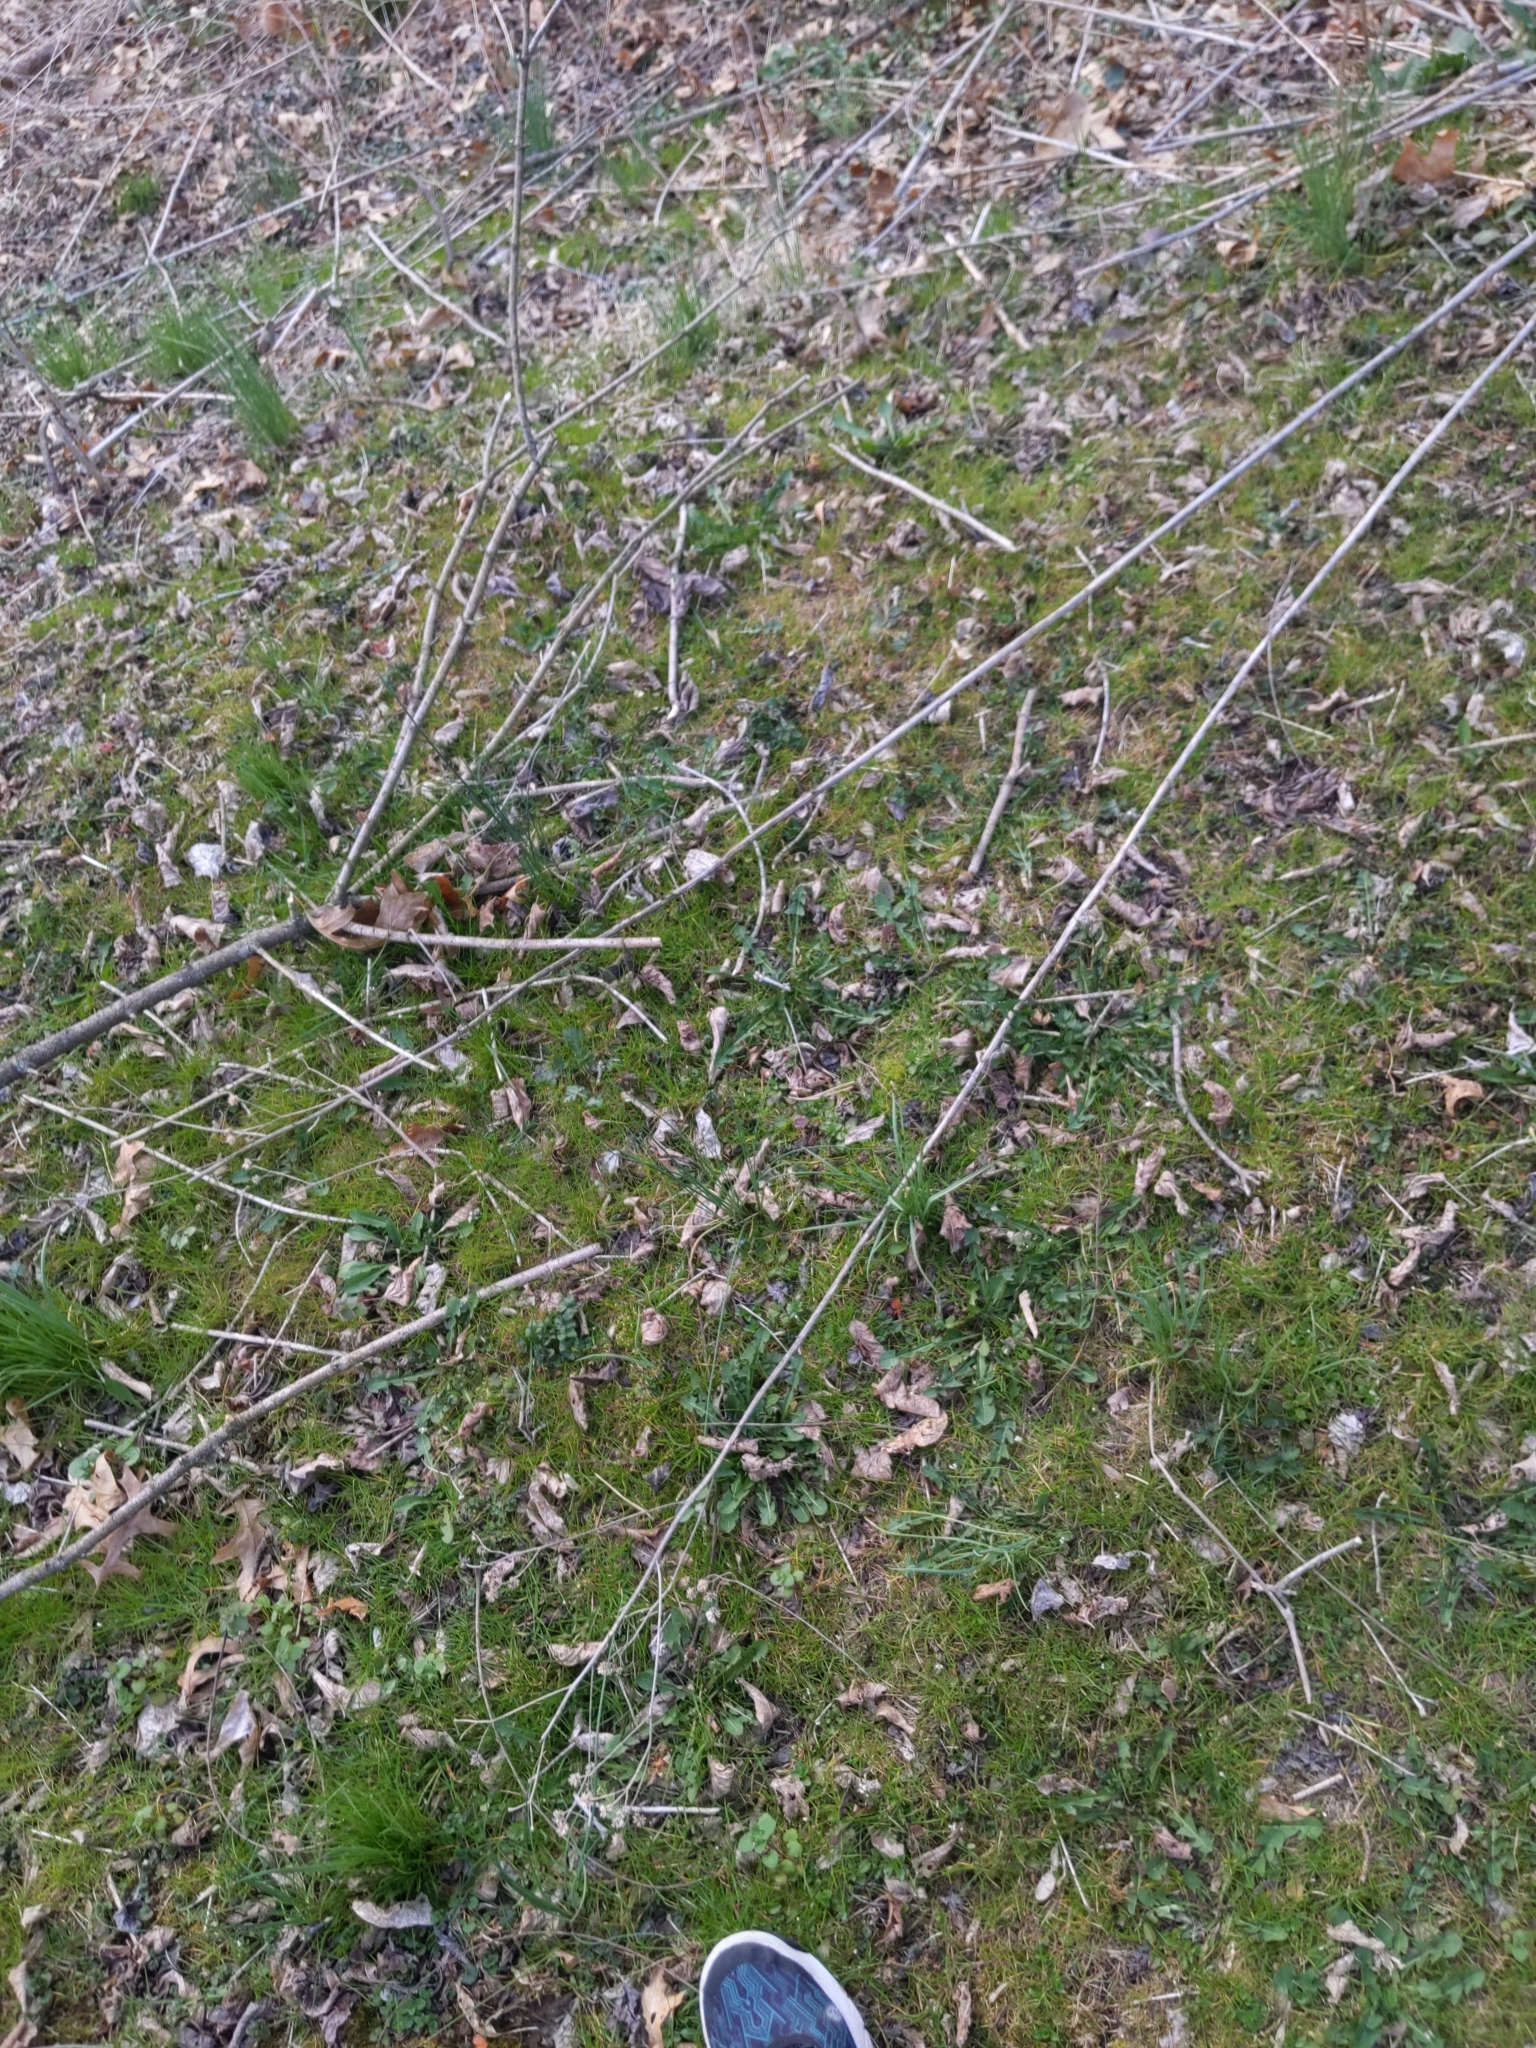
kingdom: Plantae
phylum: Tracheophyta
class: Magnoliopsida
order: Asterales
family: Asteraceae
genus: Verbesina
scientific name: Verbesina alternifolia
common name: Wingstem
